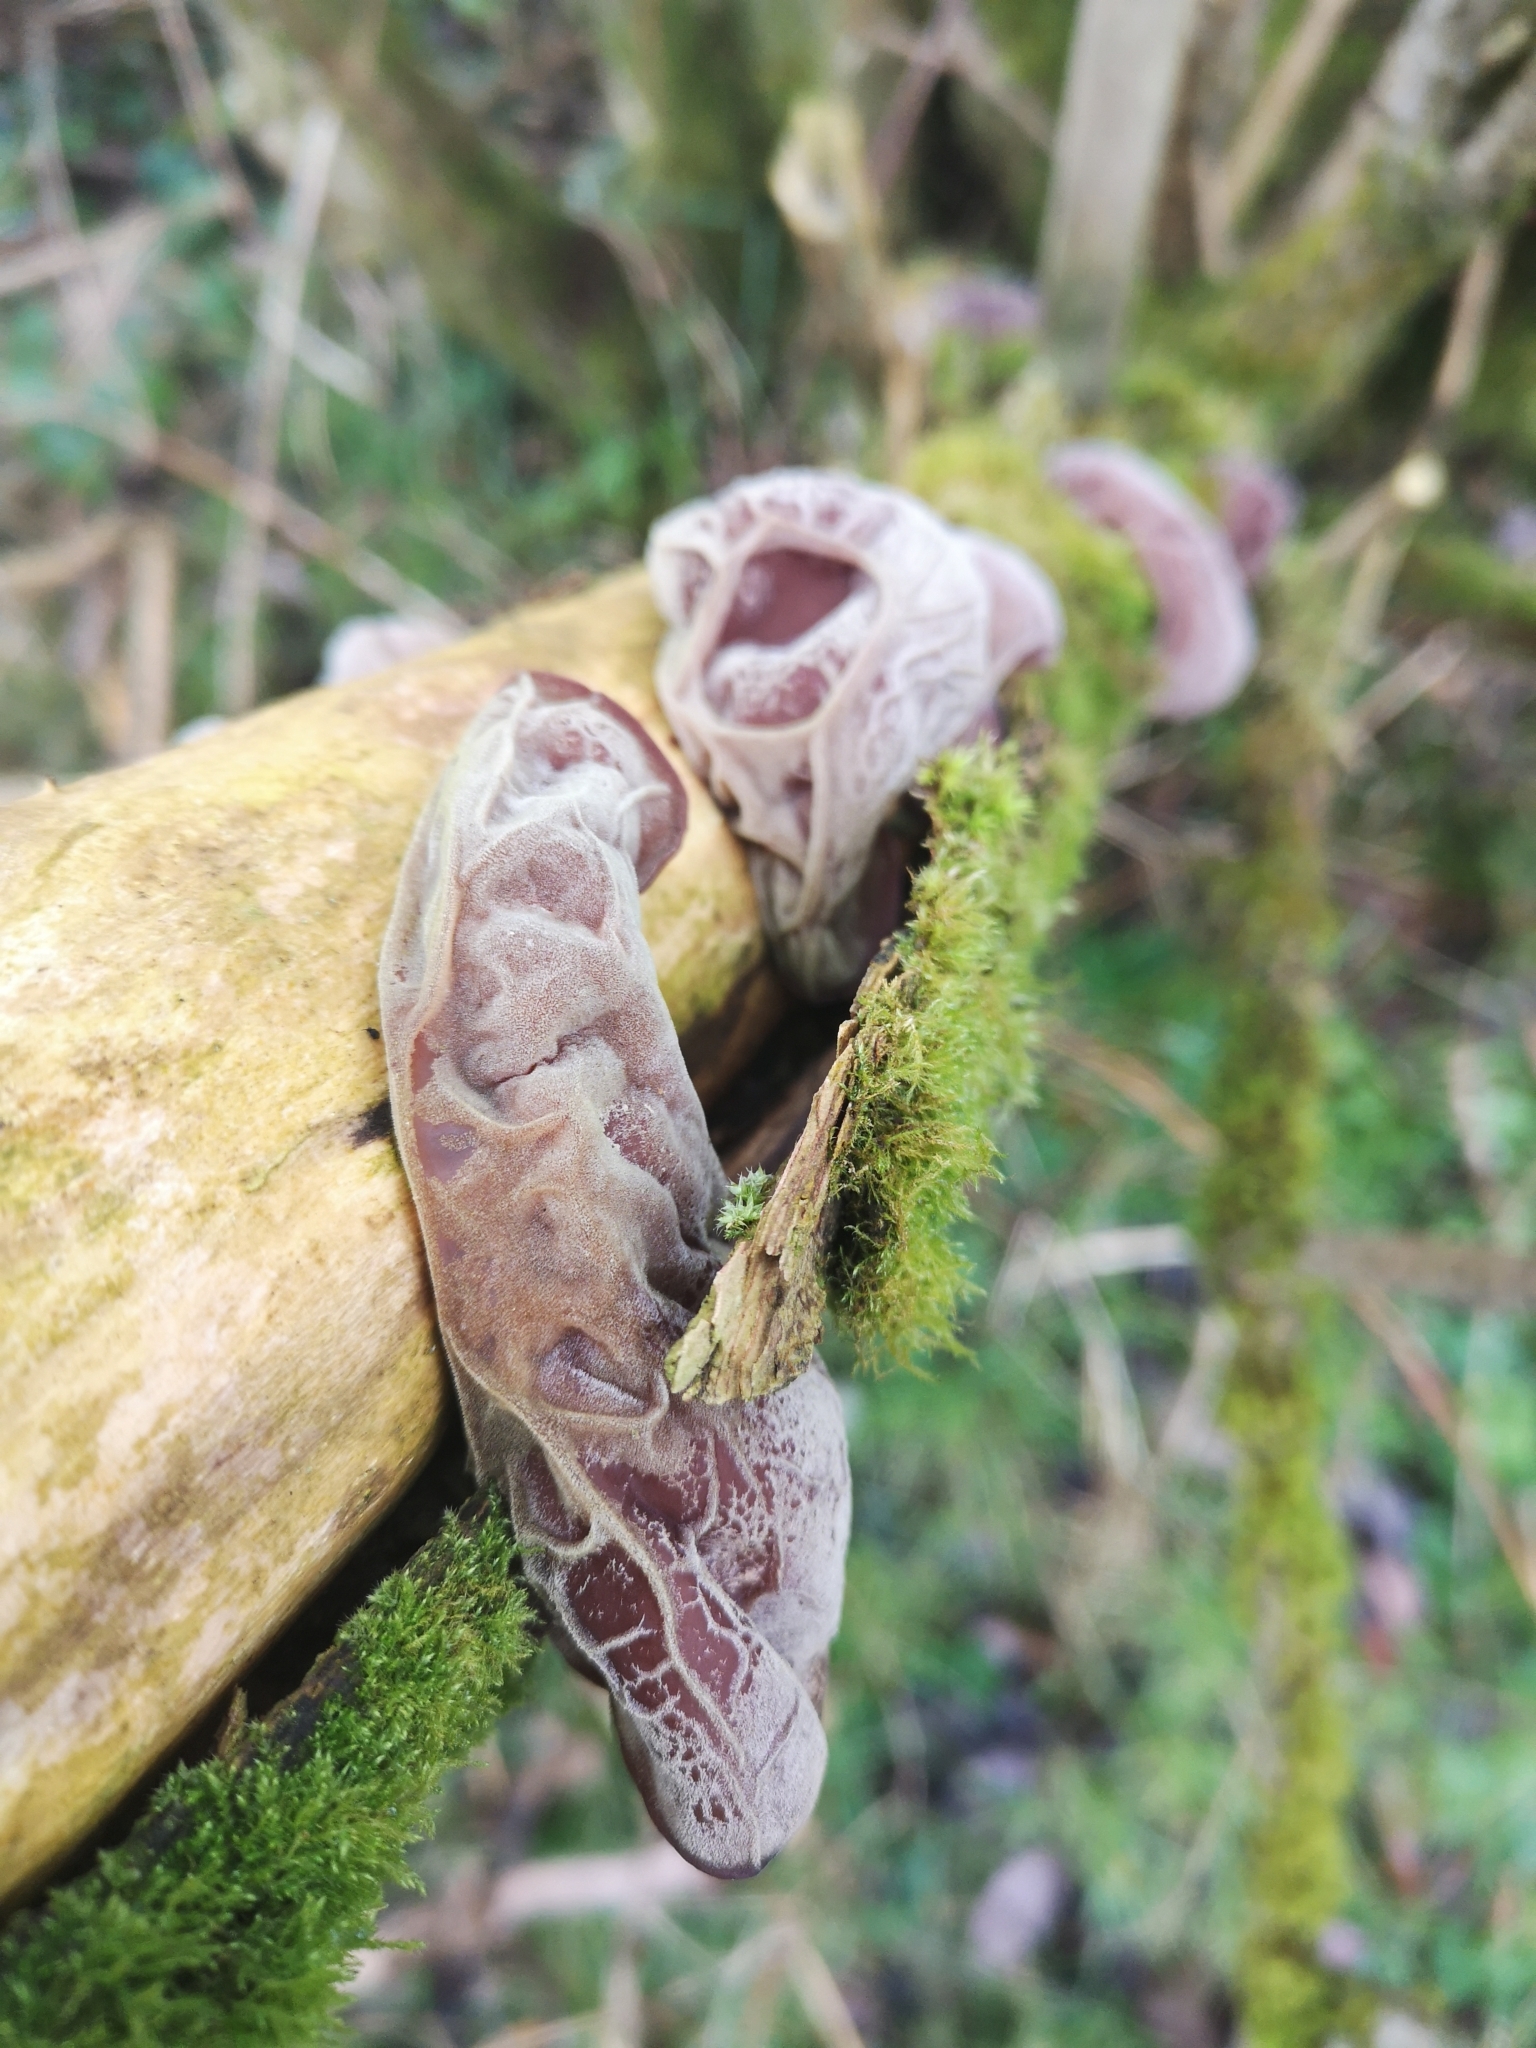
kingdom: Fungi
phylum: Basidiomycota
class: Agaricomycetes
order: Auriculariales
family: Auriculariaceae
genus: Auricularia
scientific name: Auricularia auricula-judae
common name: Jelly ear
